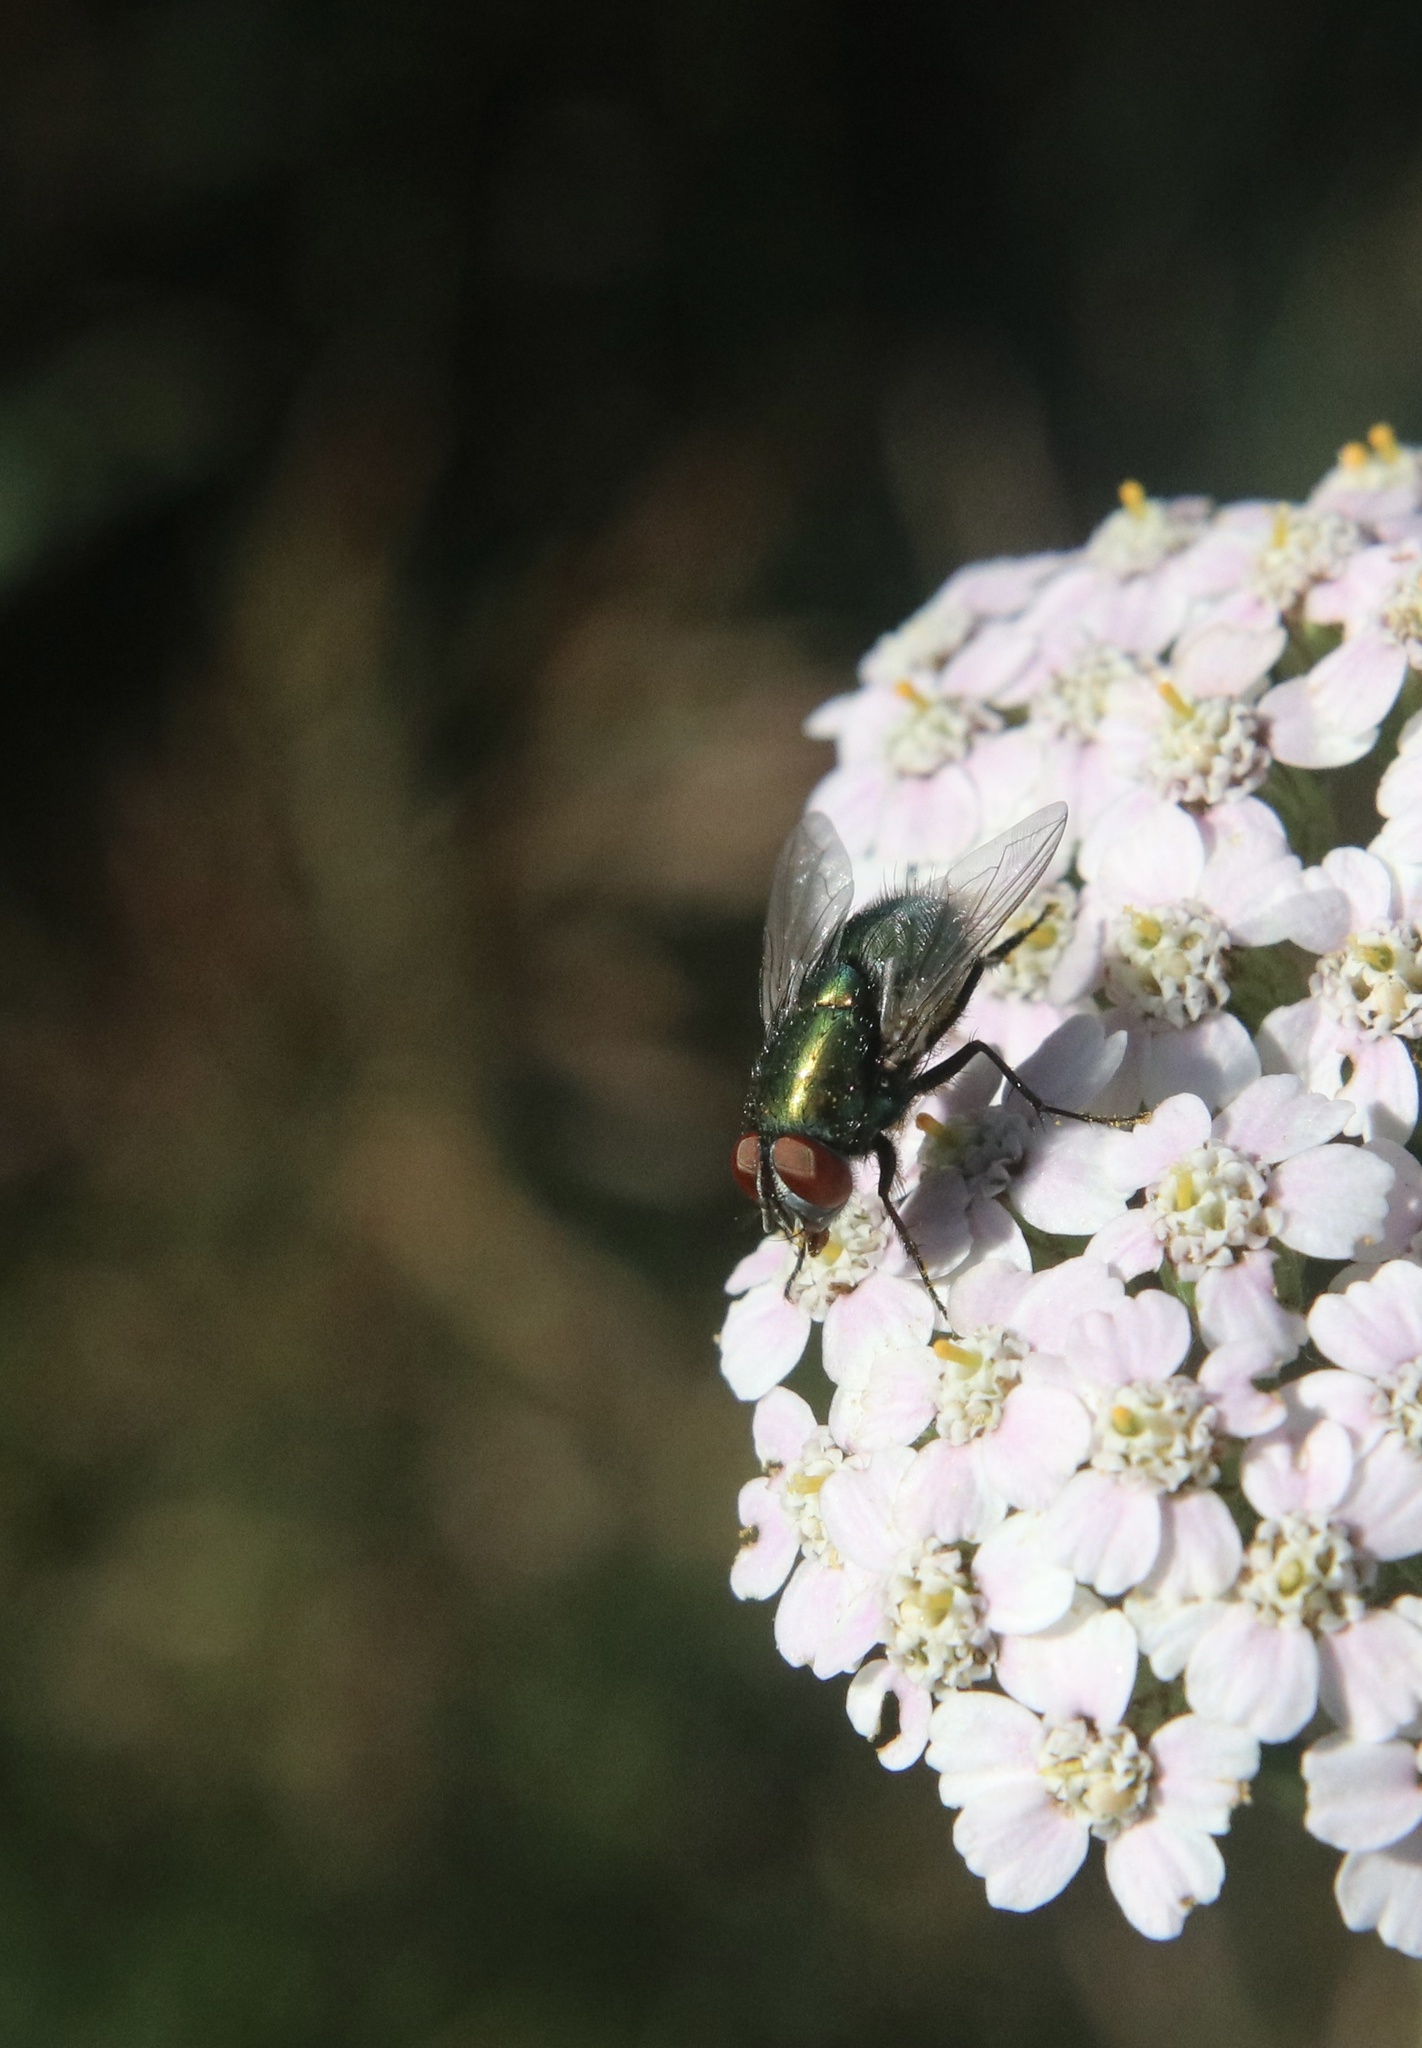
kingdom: Animalia
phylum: Arthropoda
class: Insecta
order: Diptera
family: Calliphoridae
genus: Lucilia
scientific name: Lucilia sericata
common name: Blow fly
